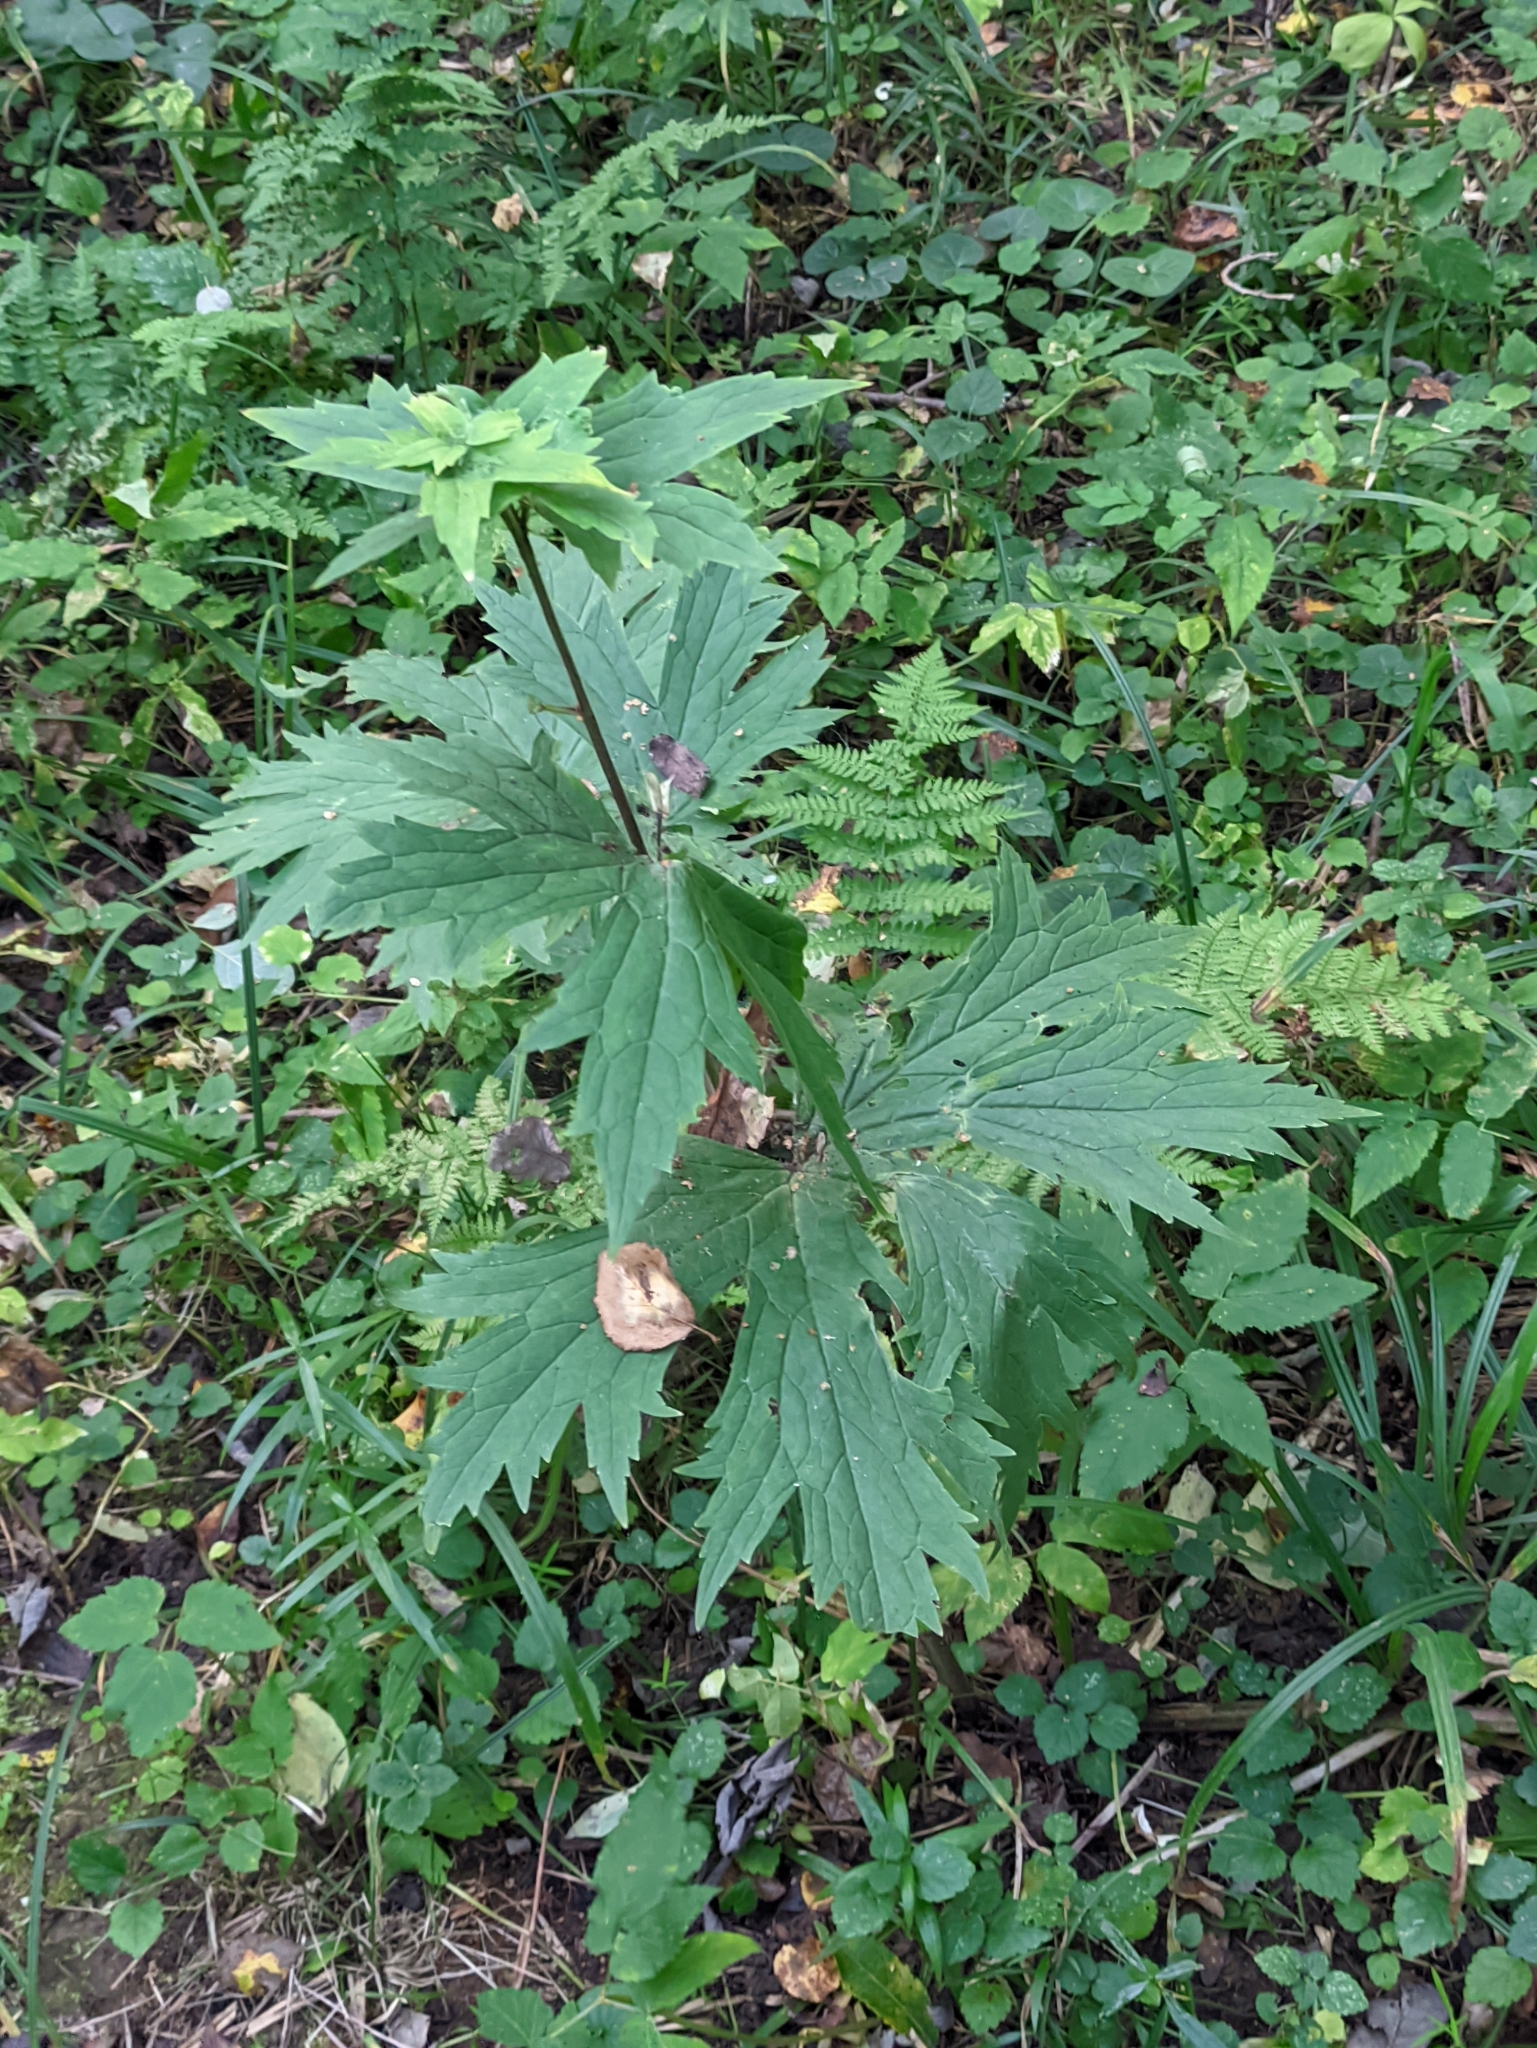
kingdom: Plantae
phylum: Tracheophyta
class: Magnoliopsida
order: Ranunculales
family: Ranunculaceae
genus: Aconitum
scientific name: Aconitum septentrionale
